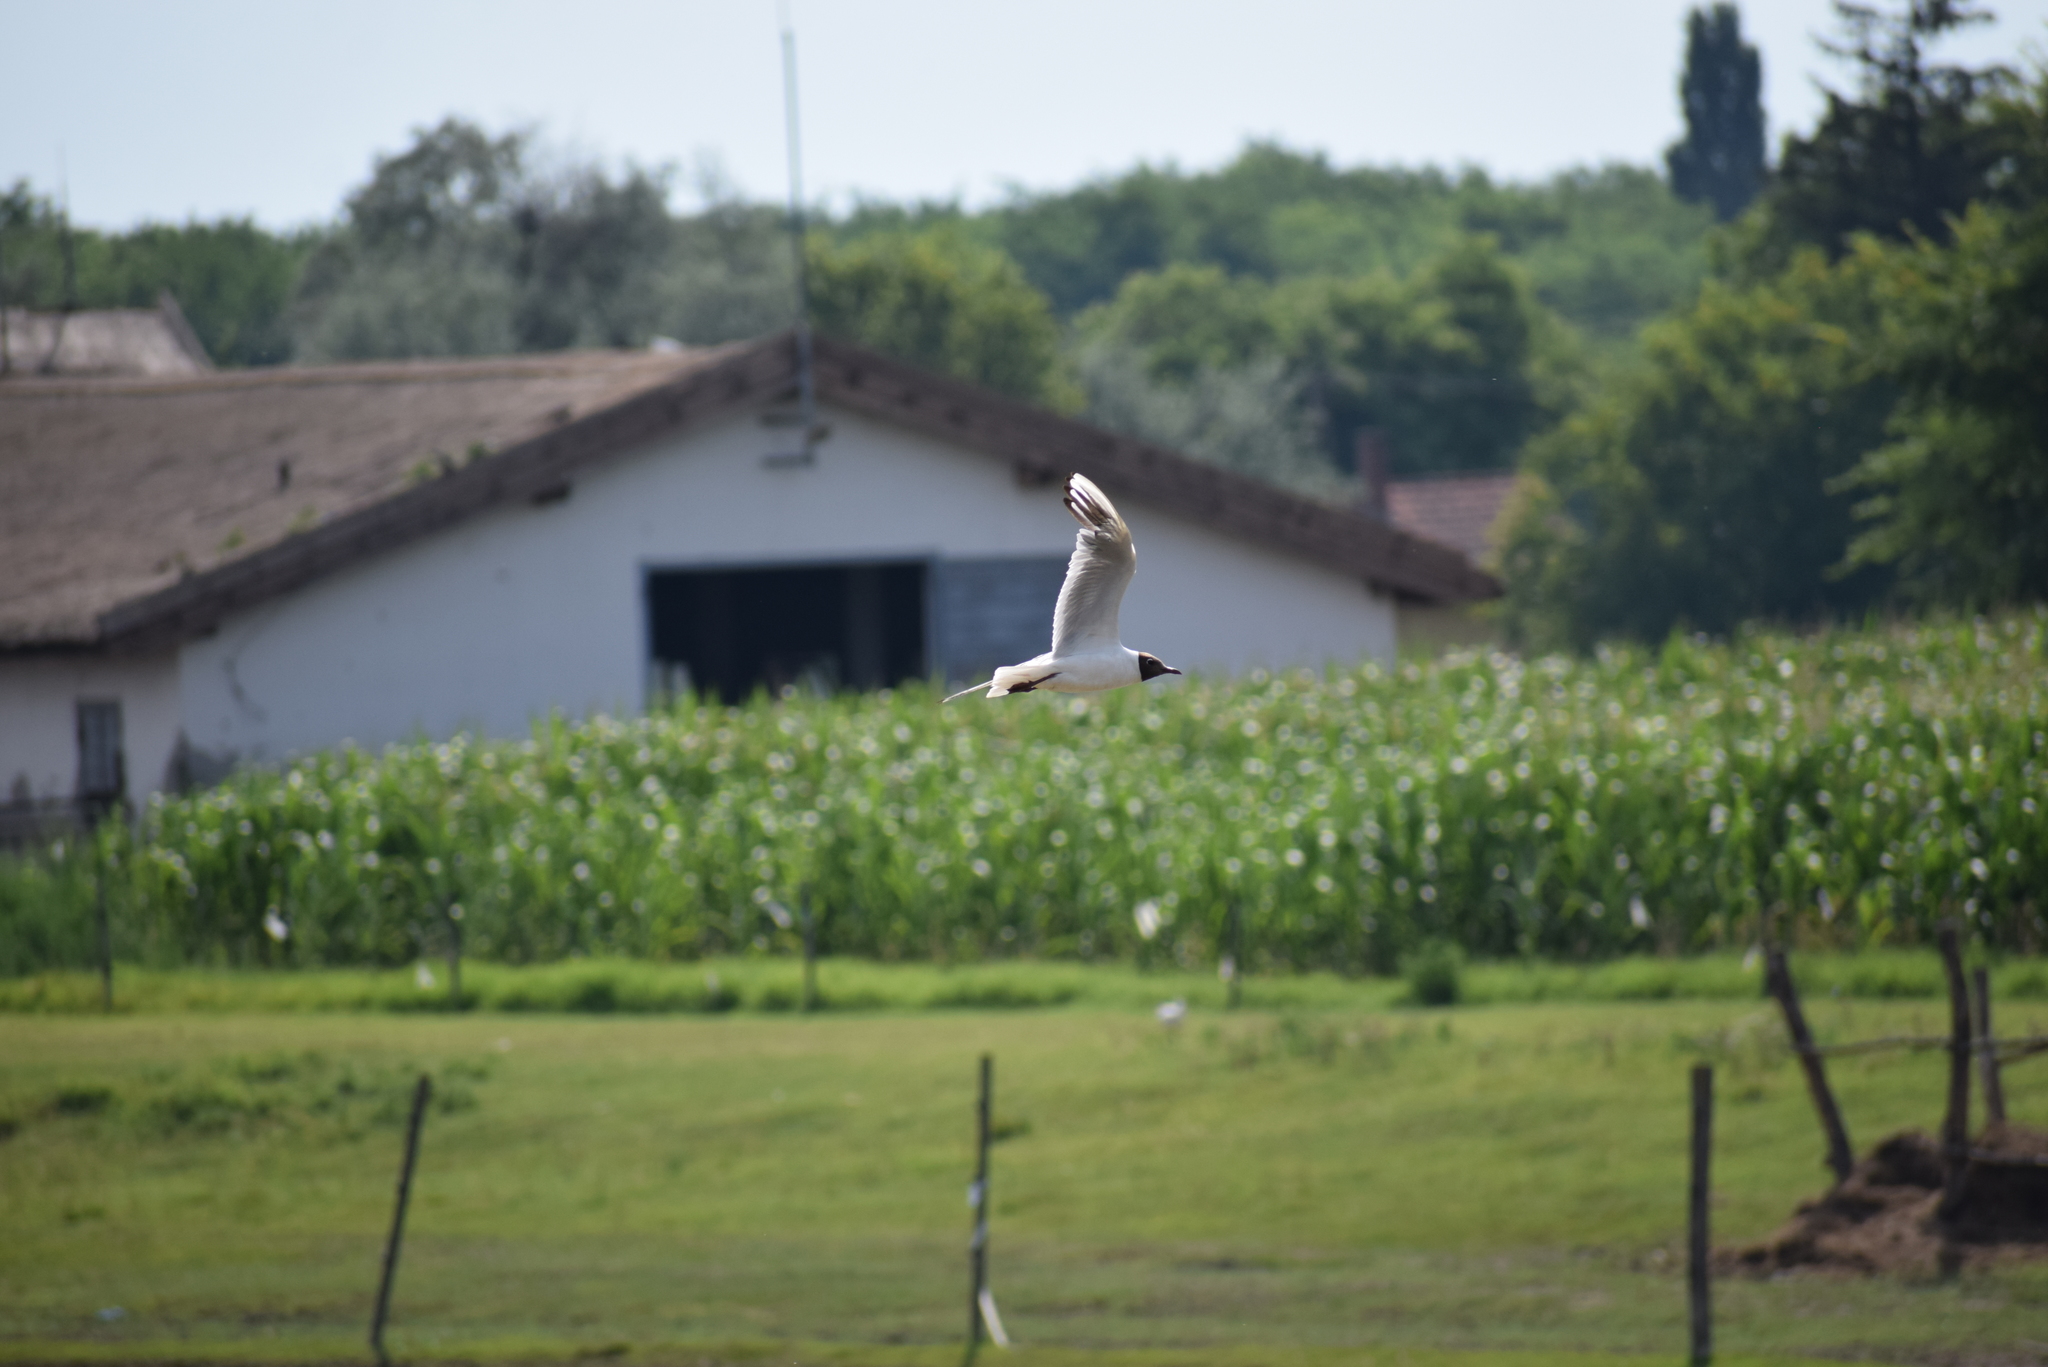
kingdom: Animalia
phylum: Chordata
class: Aves
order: Charadriiformes
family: Laridae
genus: Chroicocephalus
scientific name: Chroicocephalus ridibundus
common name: Black-headed gull
